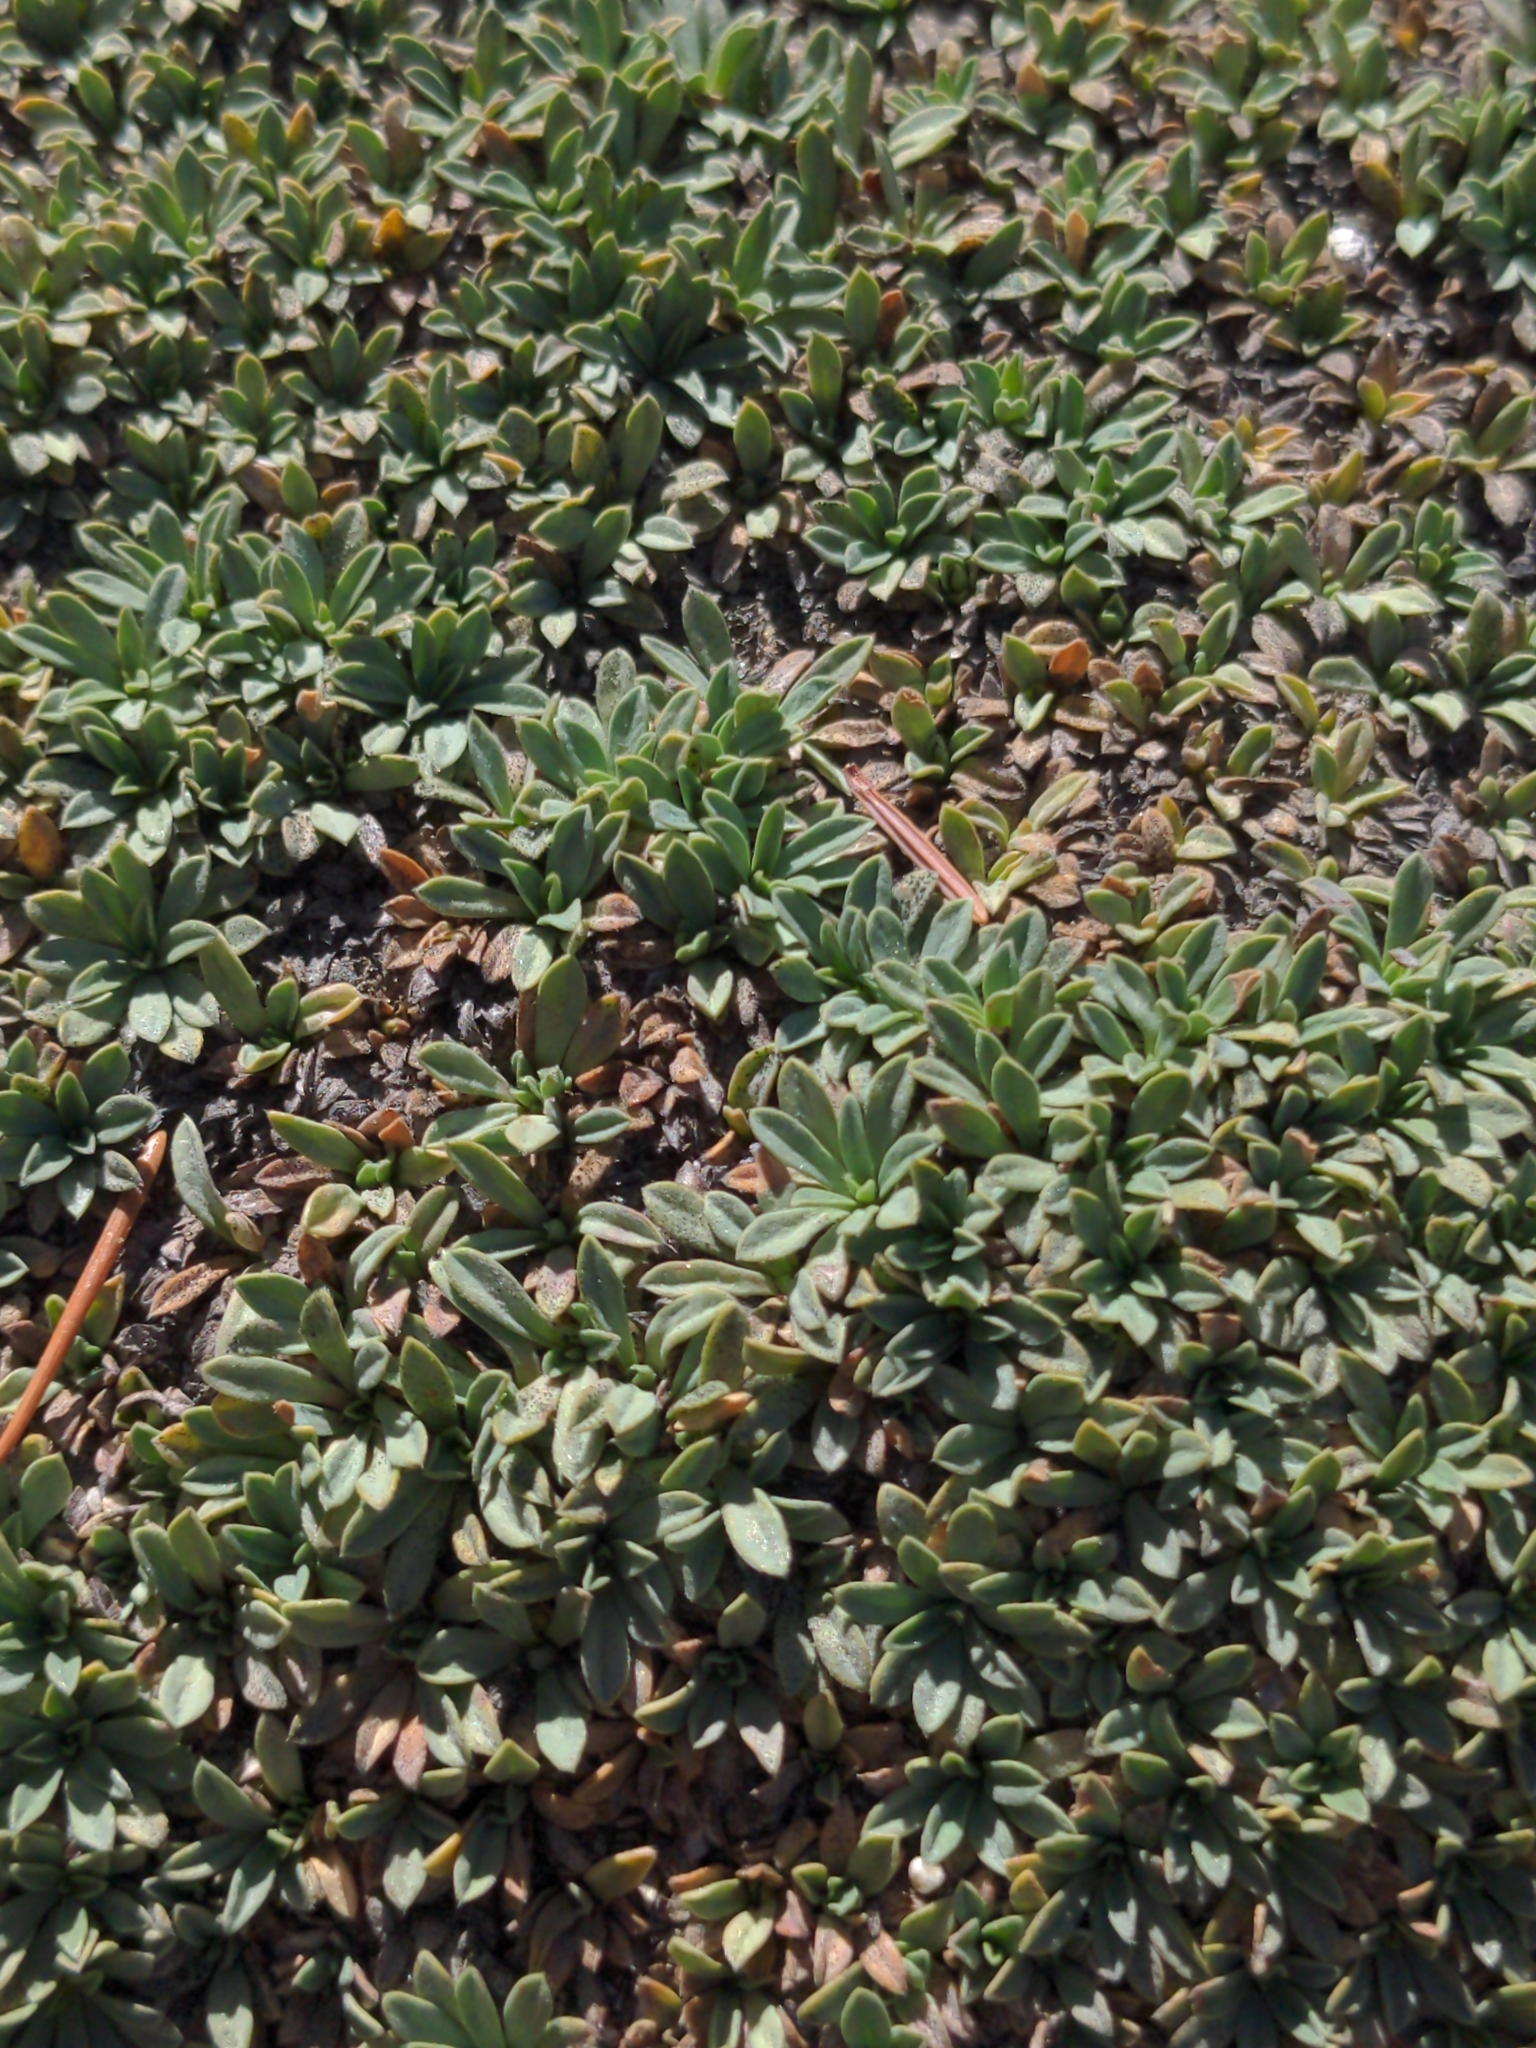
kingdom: Plantae
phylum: Tracheophyta
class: Magnoliopsida
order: Rosales
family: Rosaceae
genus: Petrophytum
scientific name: Petrophytum caespitosum
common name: Mat rockspirea
